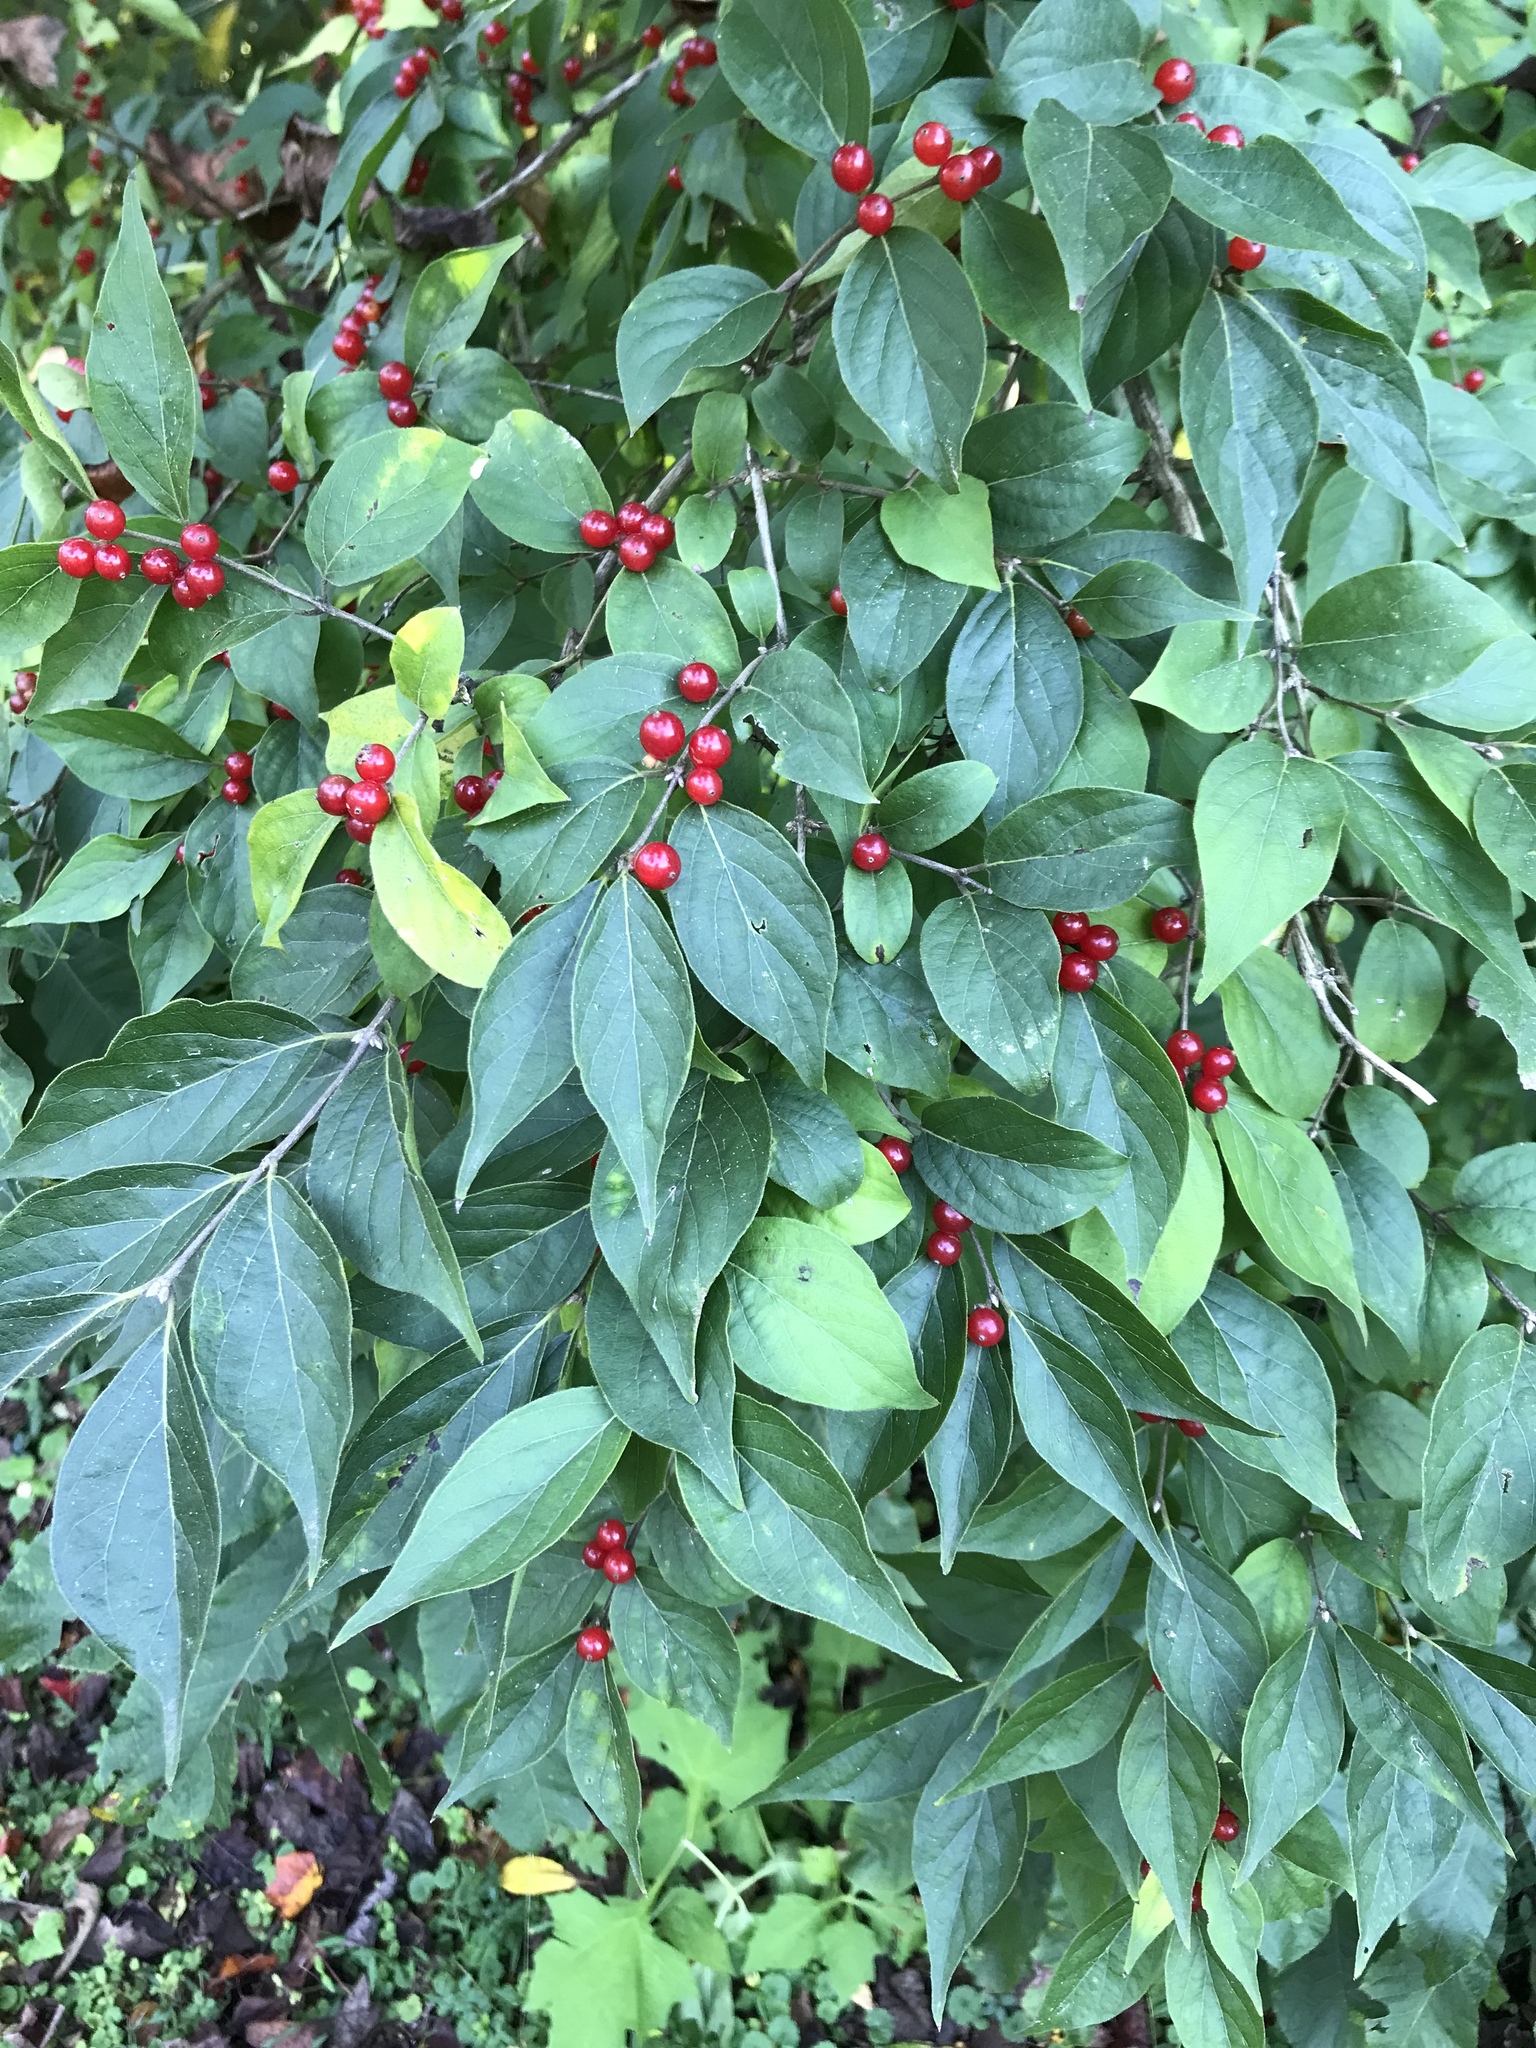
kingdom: Plantae
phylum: Tracheophyta
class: Magnoliopsida
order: Dipsacales
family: Caprifoliaceae
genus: Lonicera
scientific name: Lonicera maackii
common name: Amur honeysuckle
